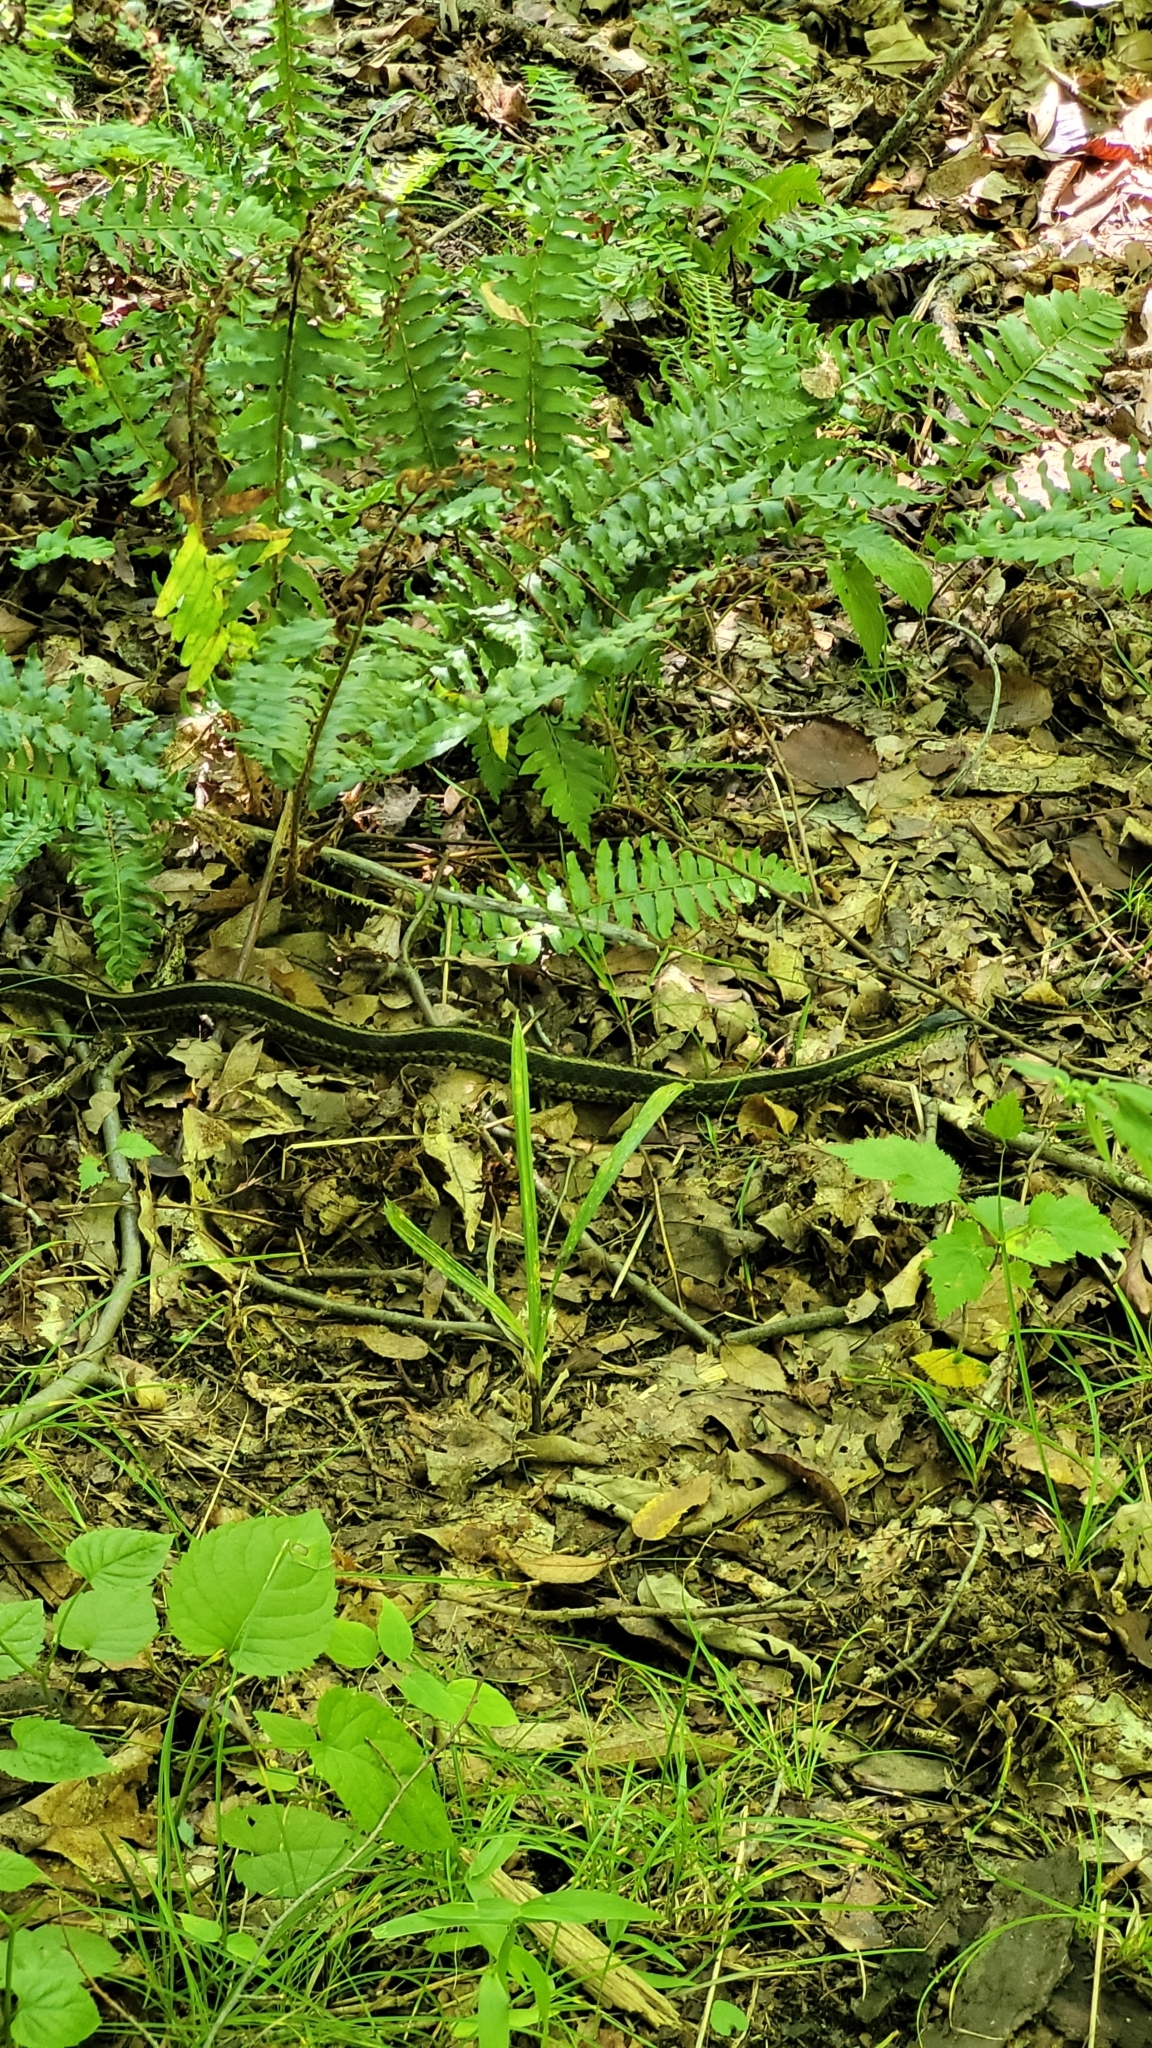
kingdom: Animalia
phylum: Chordata
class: Squamata
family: Colubridae
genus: Thamnophis
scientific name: Thamnophis sirtalis
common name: Common garter snake
